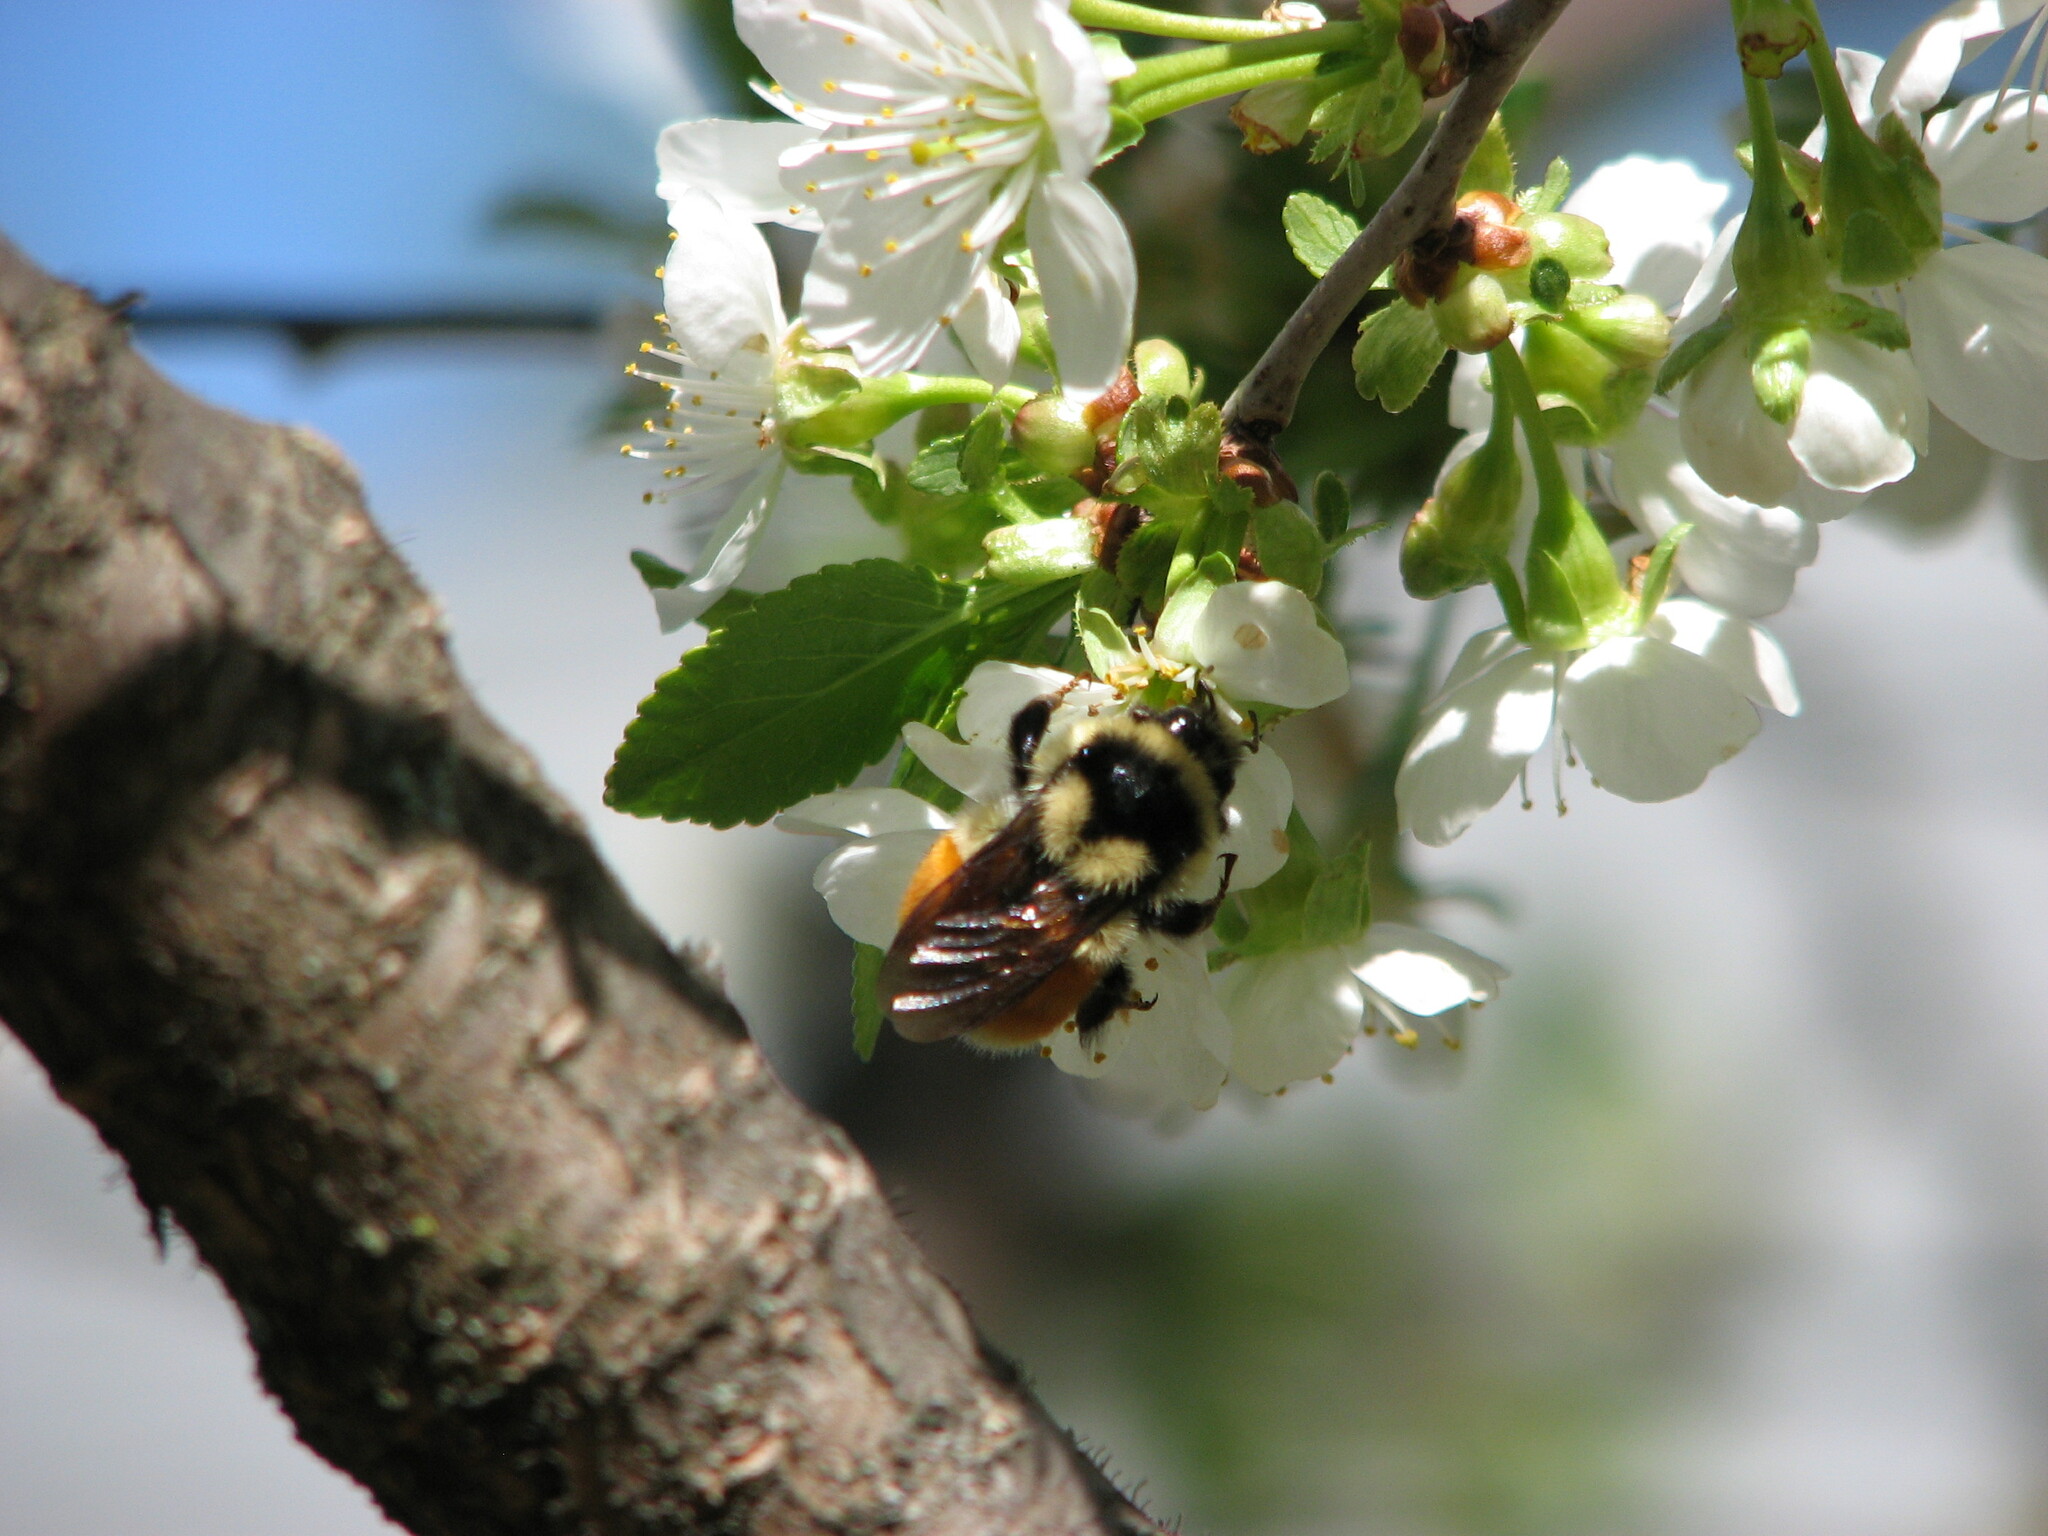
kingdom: Animalia
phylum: Arthropoda
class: Insecta
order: Hymenoptera
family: Apidae
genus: Bombus
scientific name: Bombus ternarius
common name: Tri-colored bumble bee
